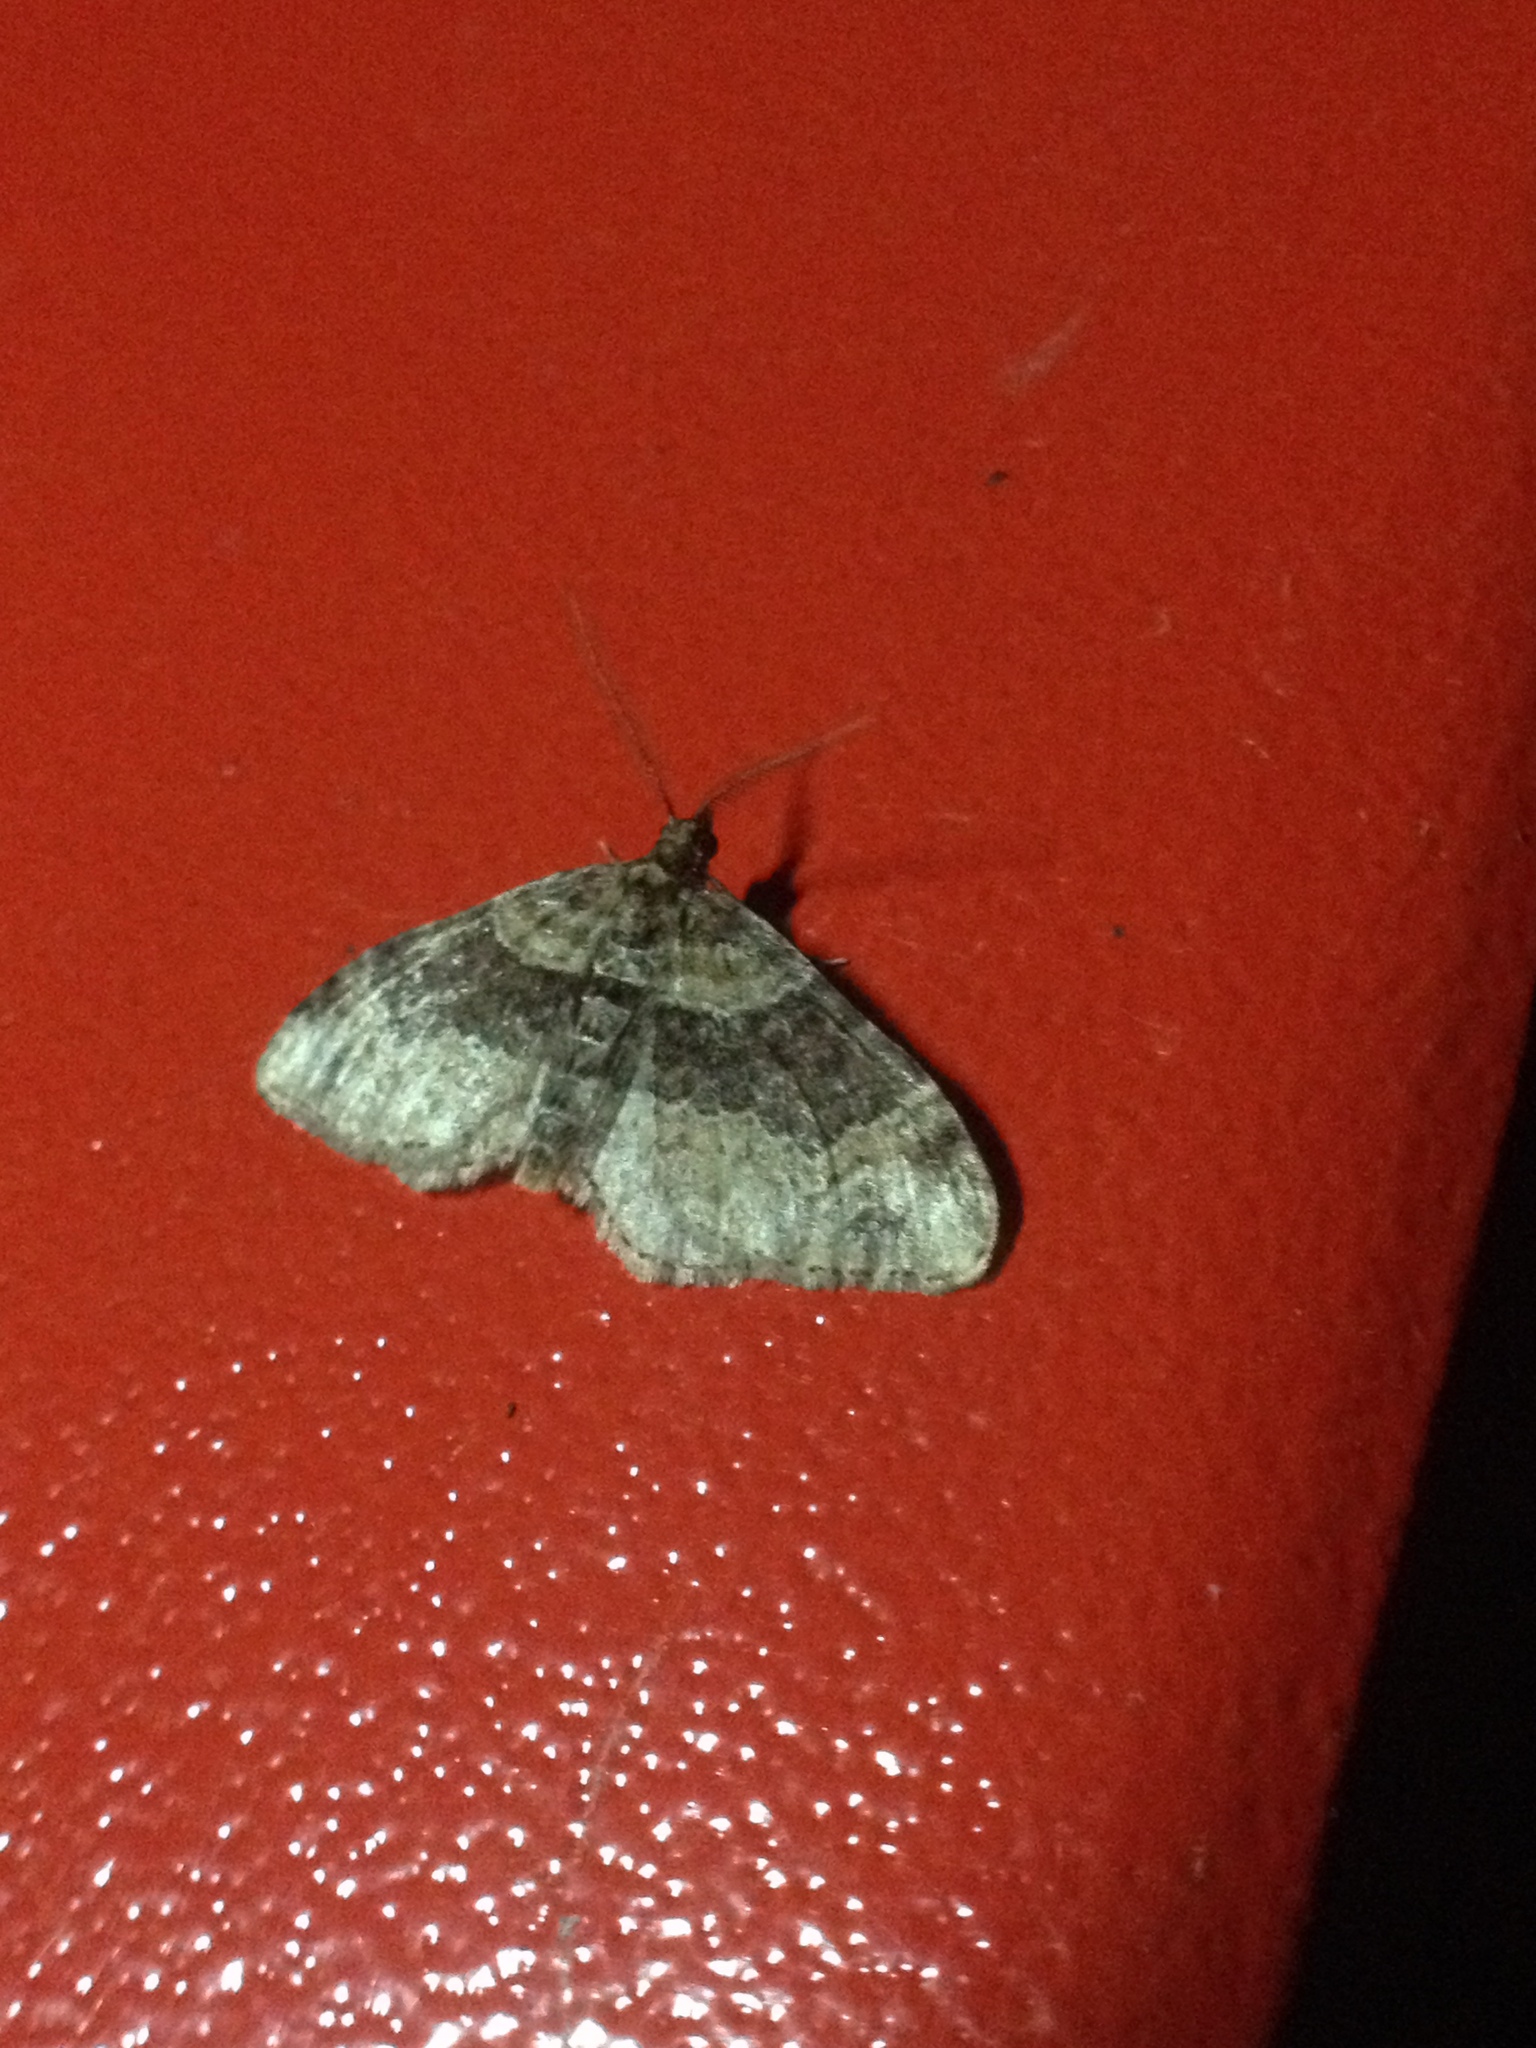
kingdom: Animalia
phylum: Arthropoda
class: Insecta
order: Lepidoptera
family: Geometridae
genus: Xanthorhoe
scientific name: Xanthorhoe ferrugata
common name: Dark-barred twin-spot carpet
